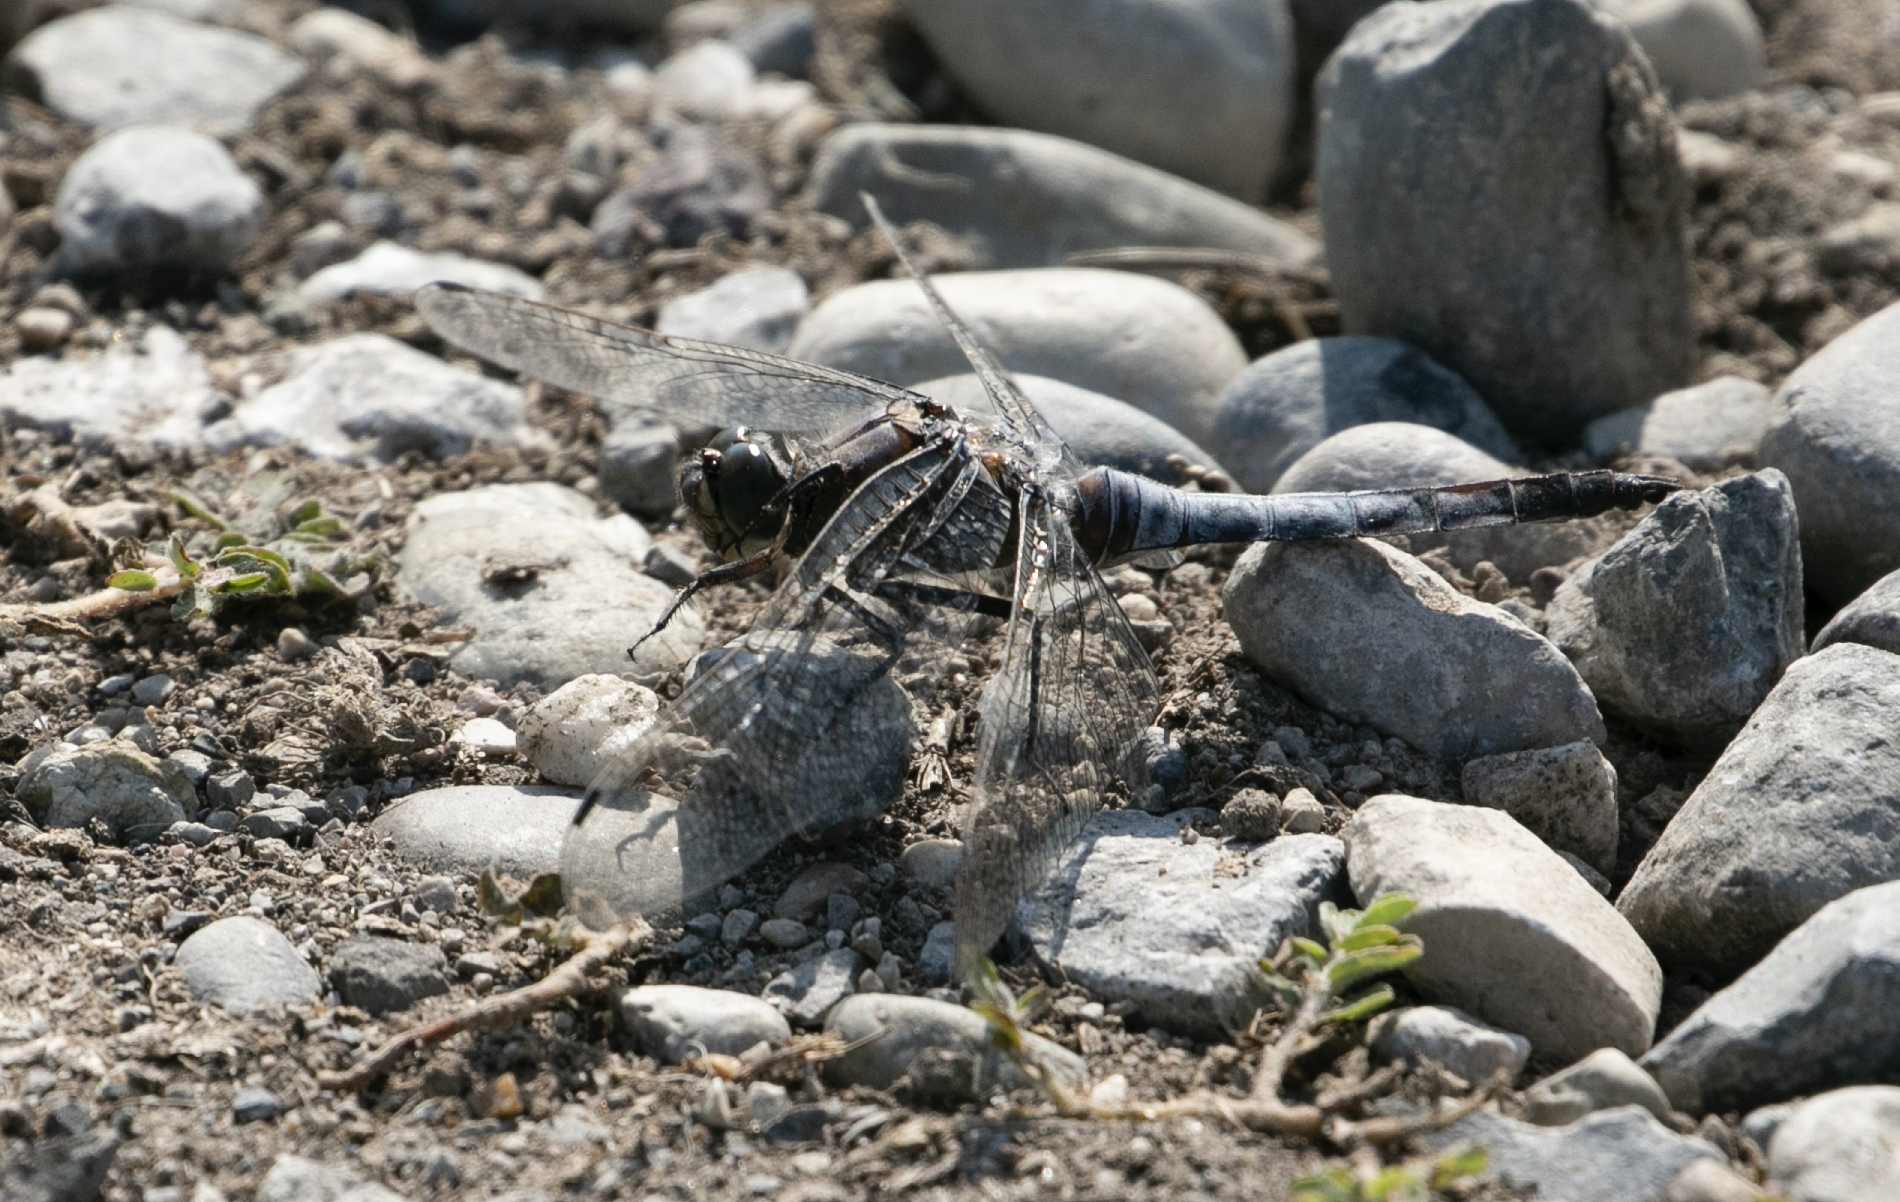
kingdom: Animalia
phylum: Arthropoda
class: Insecta
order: Odonata
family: Libellulidae
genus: Orthetrum
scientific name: Orthetrum cancellatum
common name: Black-tailed skimmer
